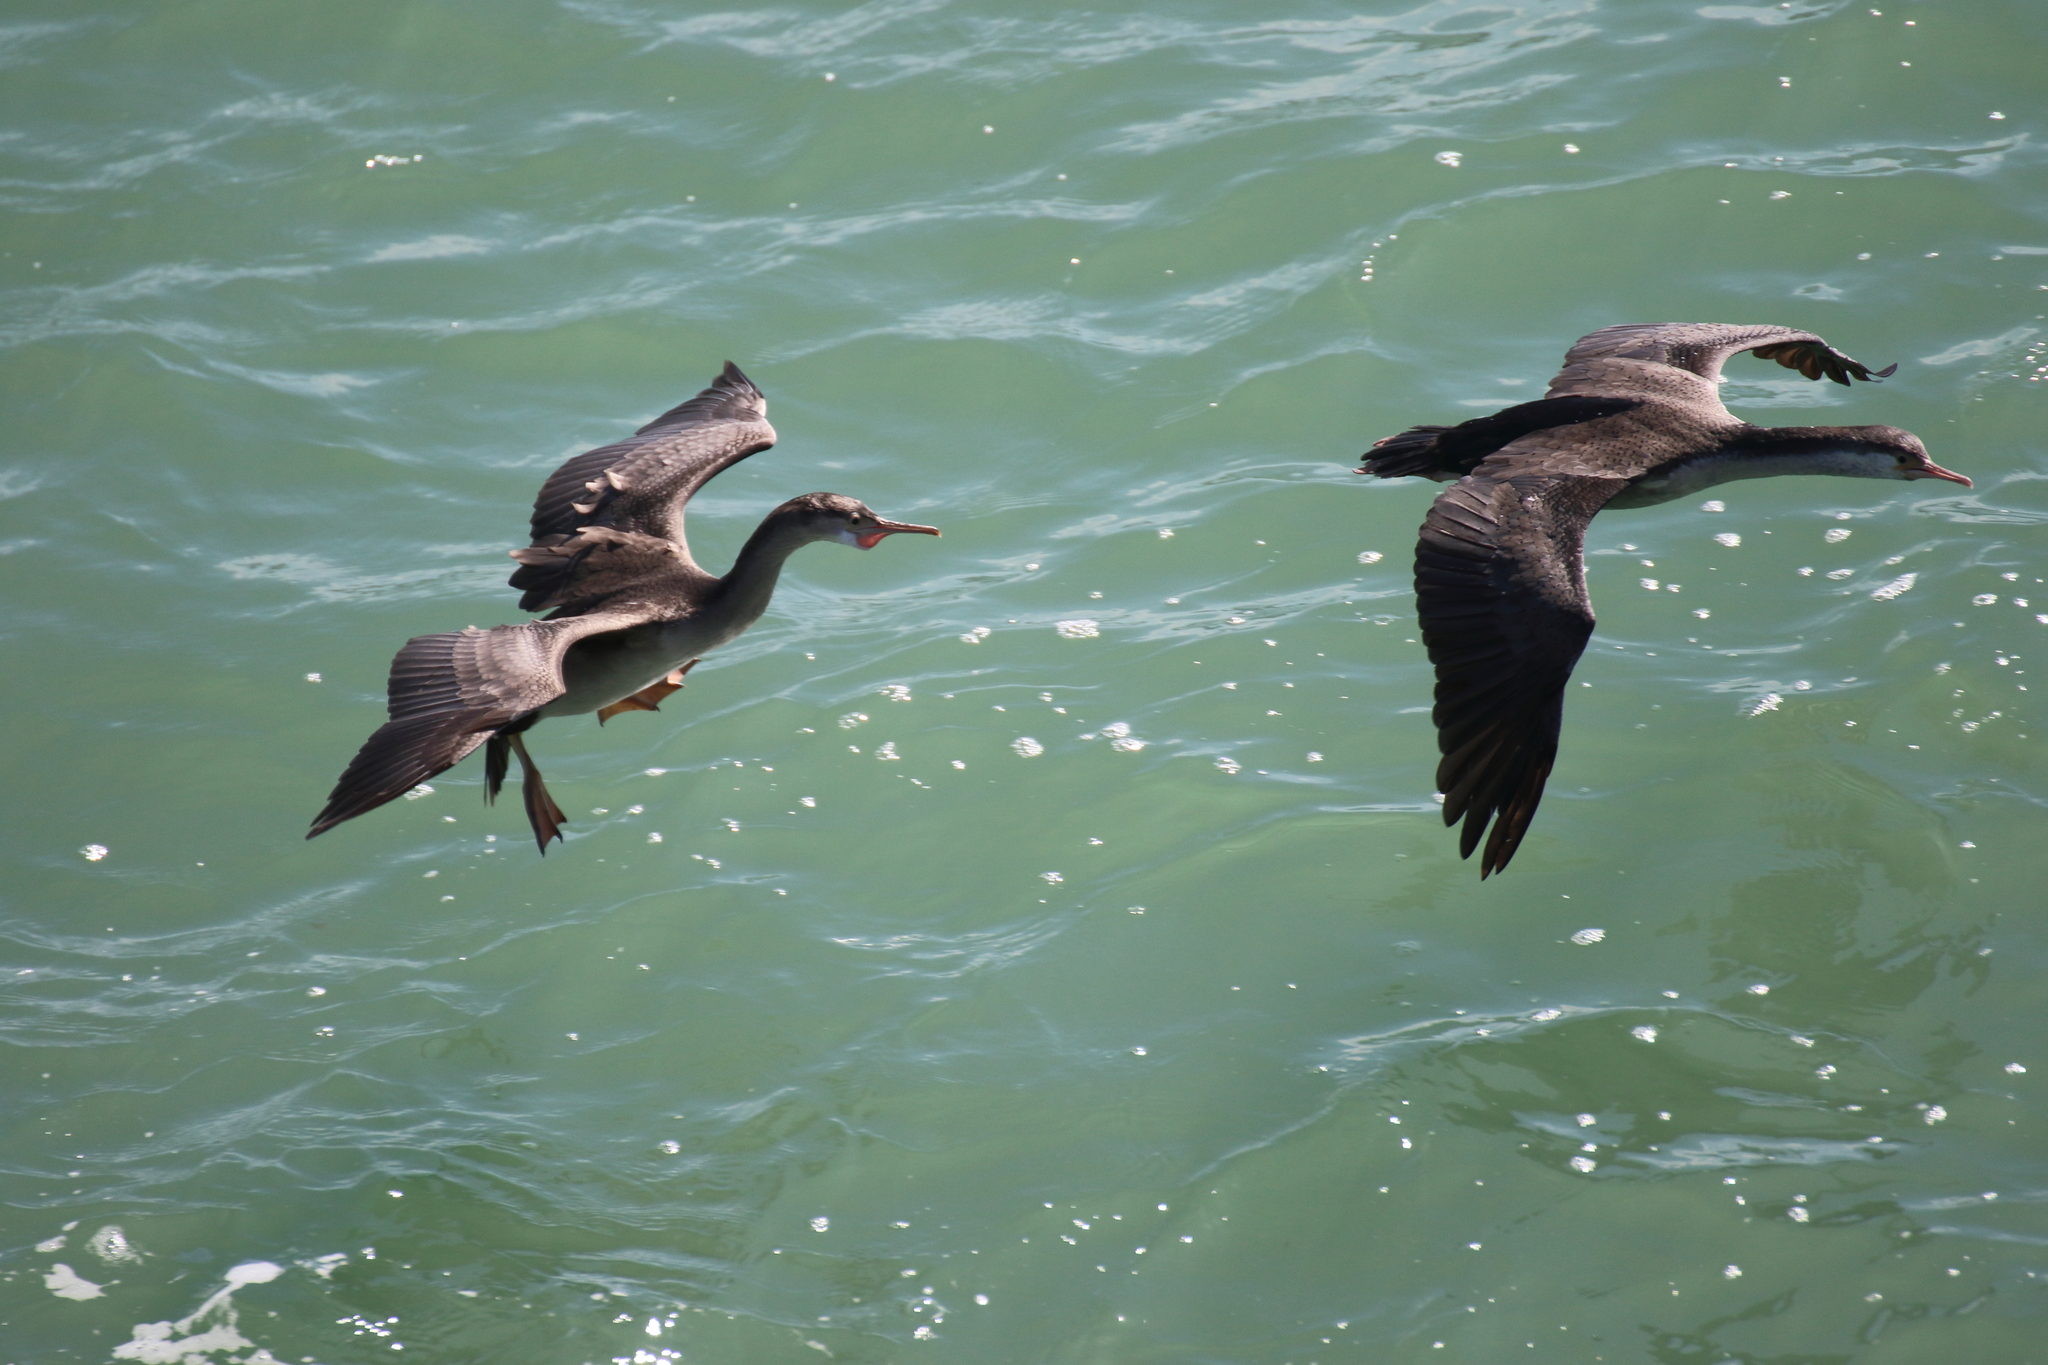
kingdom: Animalia
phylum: Chordata
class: Aves
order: Suliformes
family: Phalacrocoracidae
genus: Phalacrocorax
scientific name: Phalacrocorax punctatus
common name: Spotted shag
